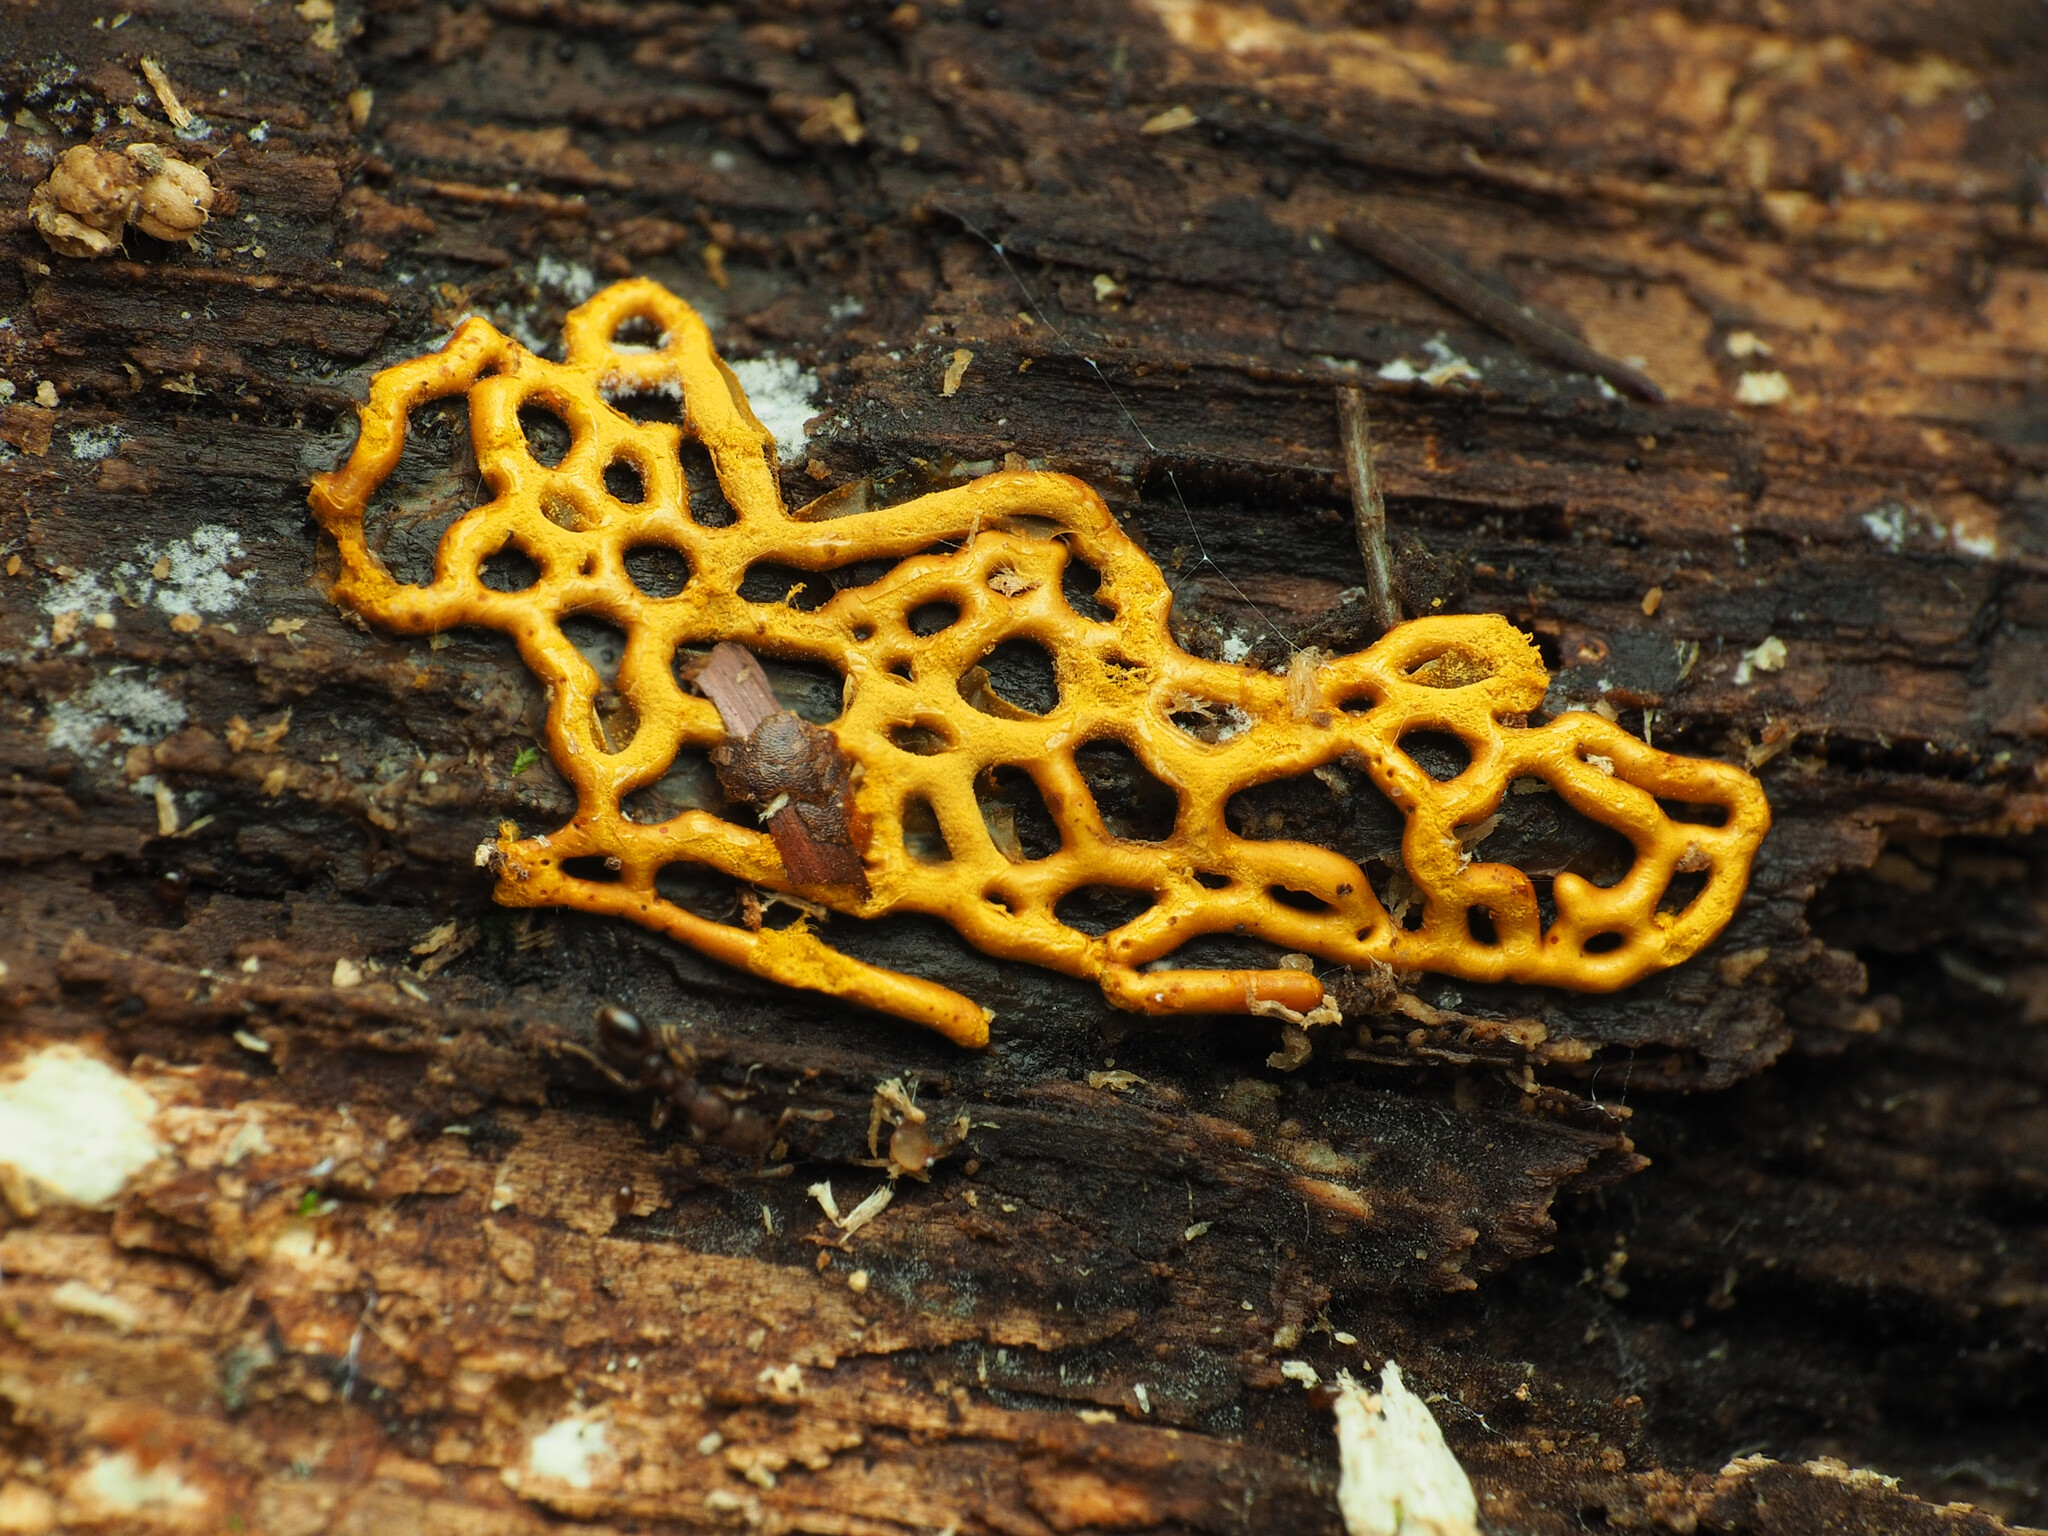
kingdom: Protozoa
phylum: Mycetozoa
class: Myxomycetes
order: Trichiales
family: Arcyriaceae
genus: Hemitrichia
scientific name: Hemitrichia serpula
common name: Pretzel slime mold
